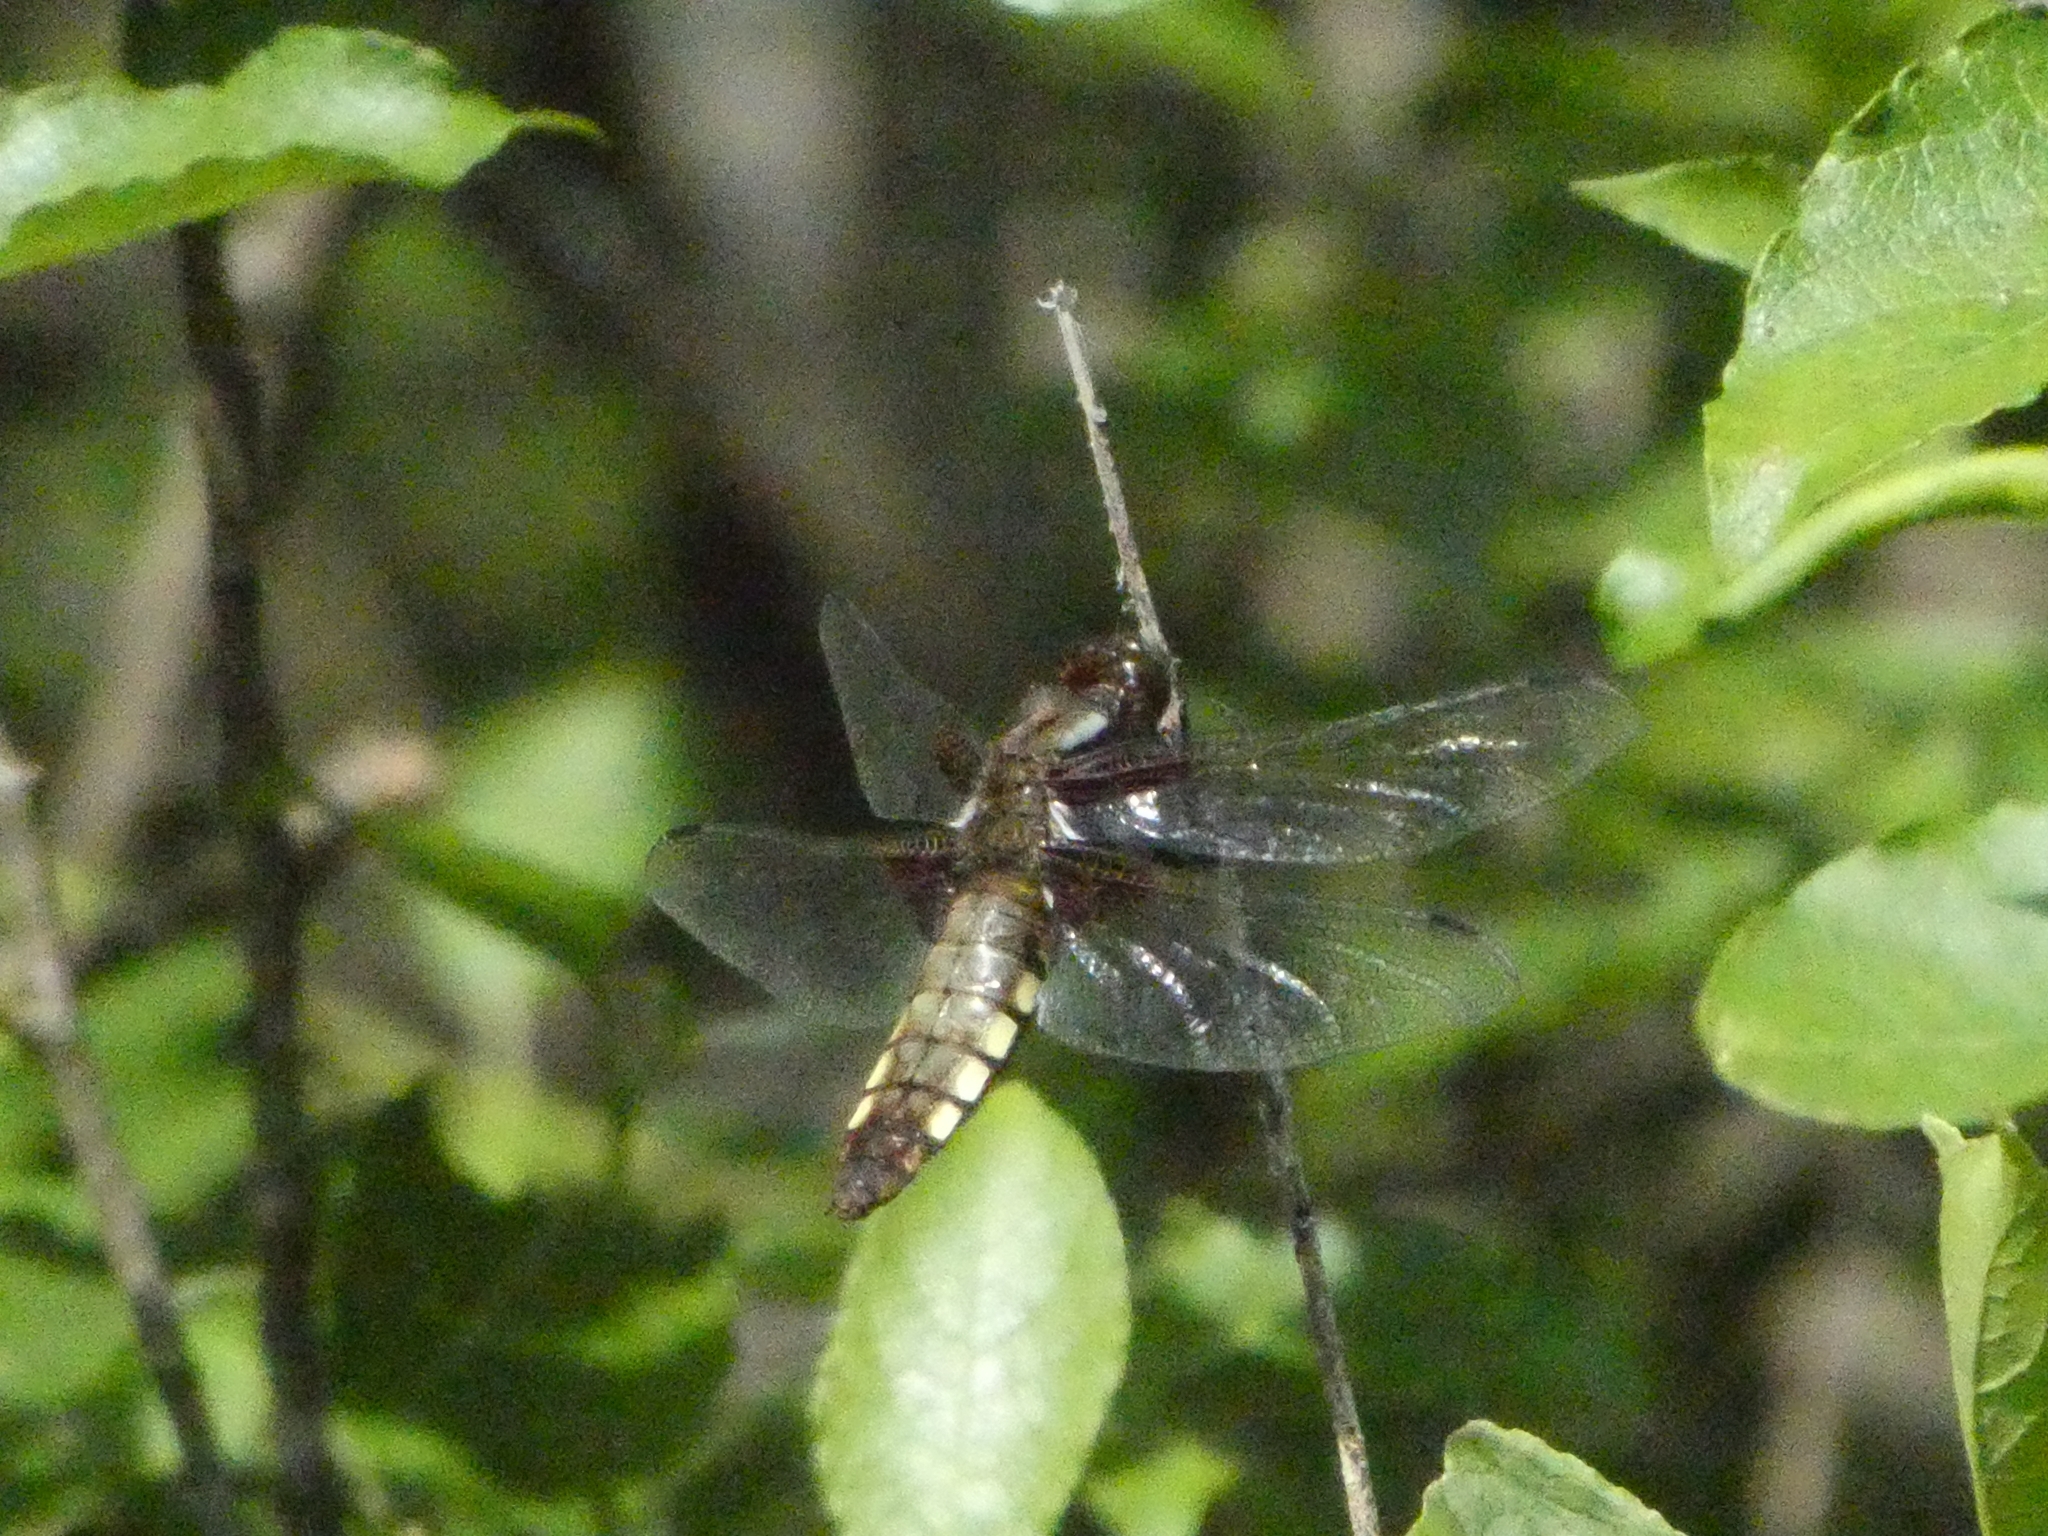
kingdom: Animalia
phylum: Arthropoda
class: Insecta
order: Odonata
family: Libellulidae
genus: Libellula
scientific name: Libellula depressa
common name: Broad-bodied chaser
